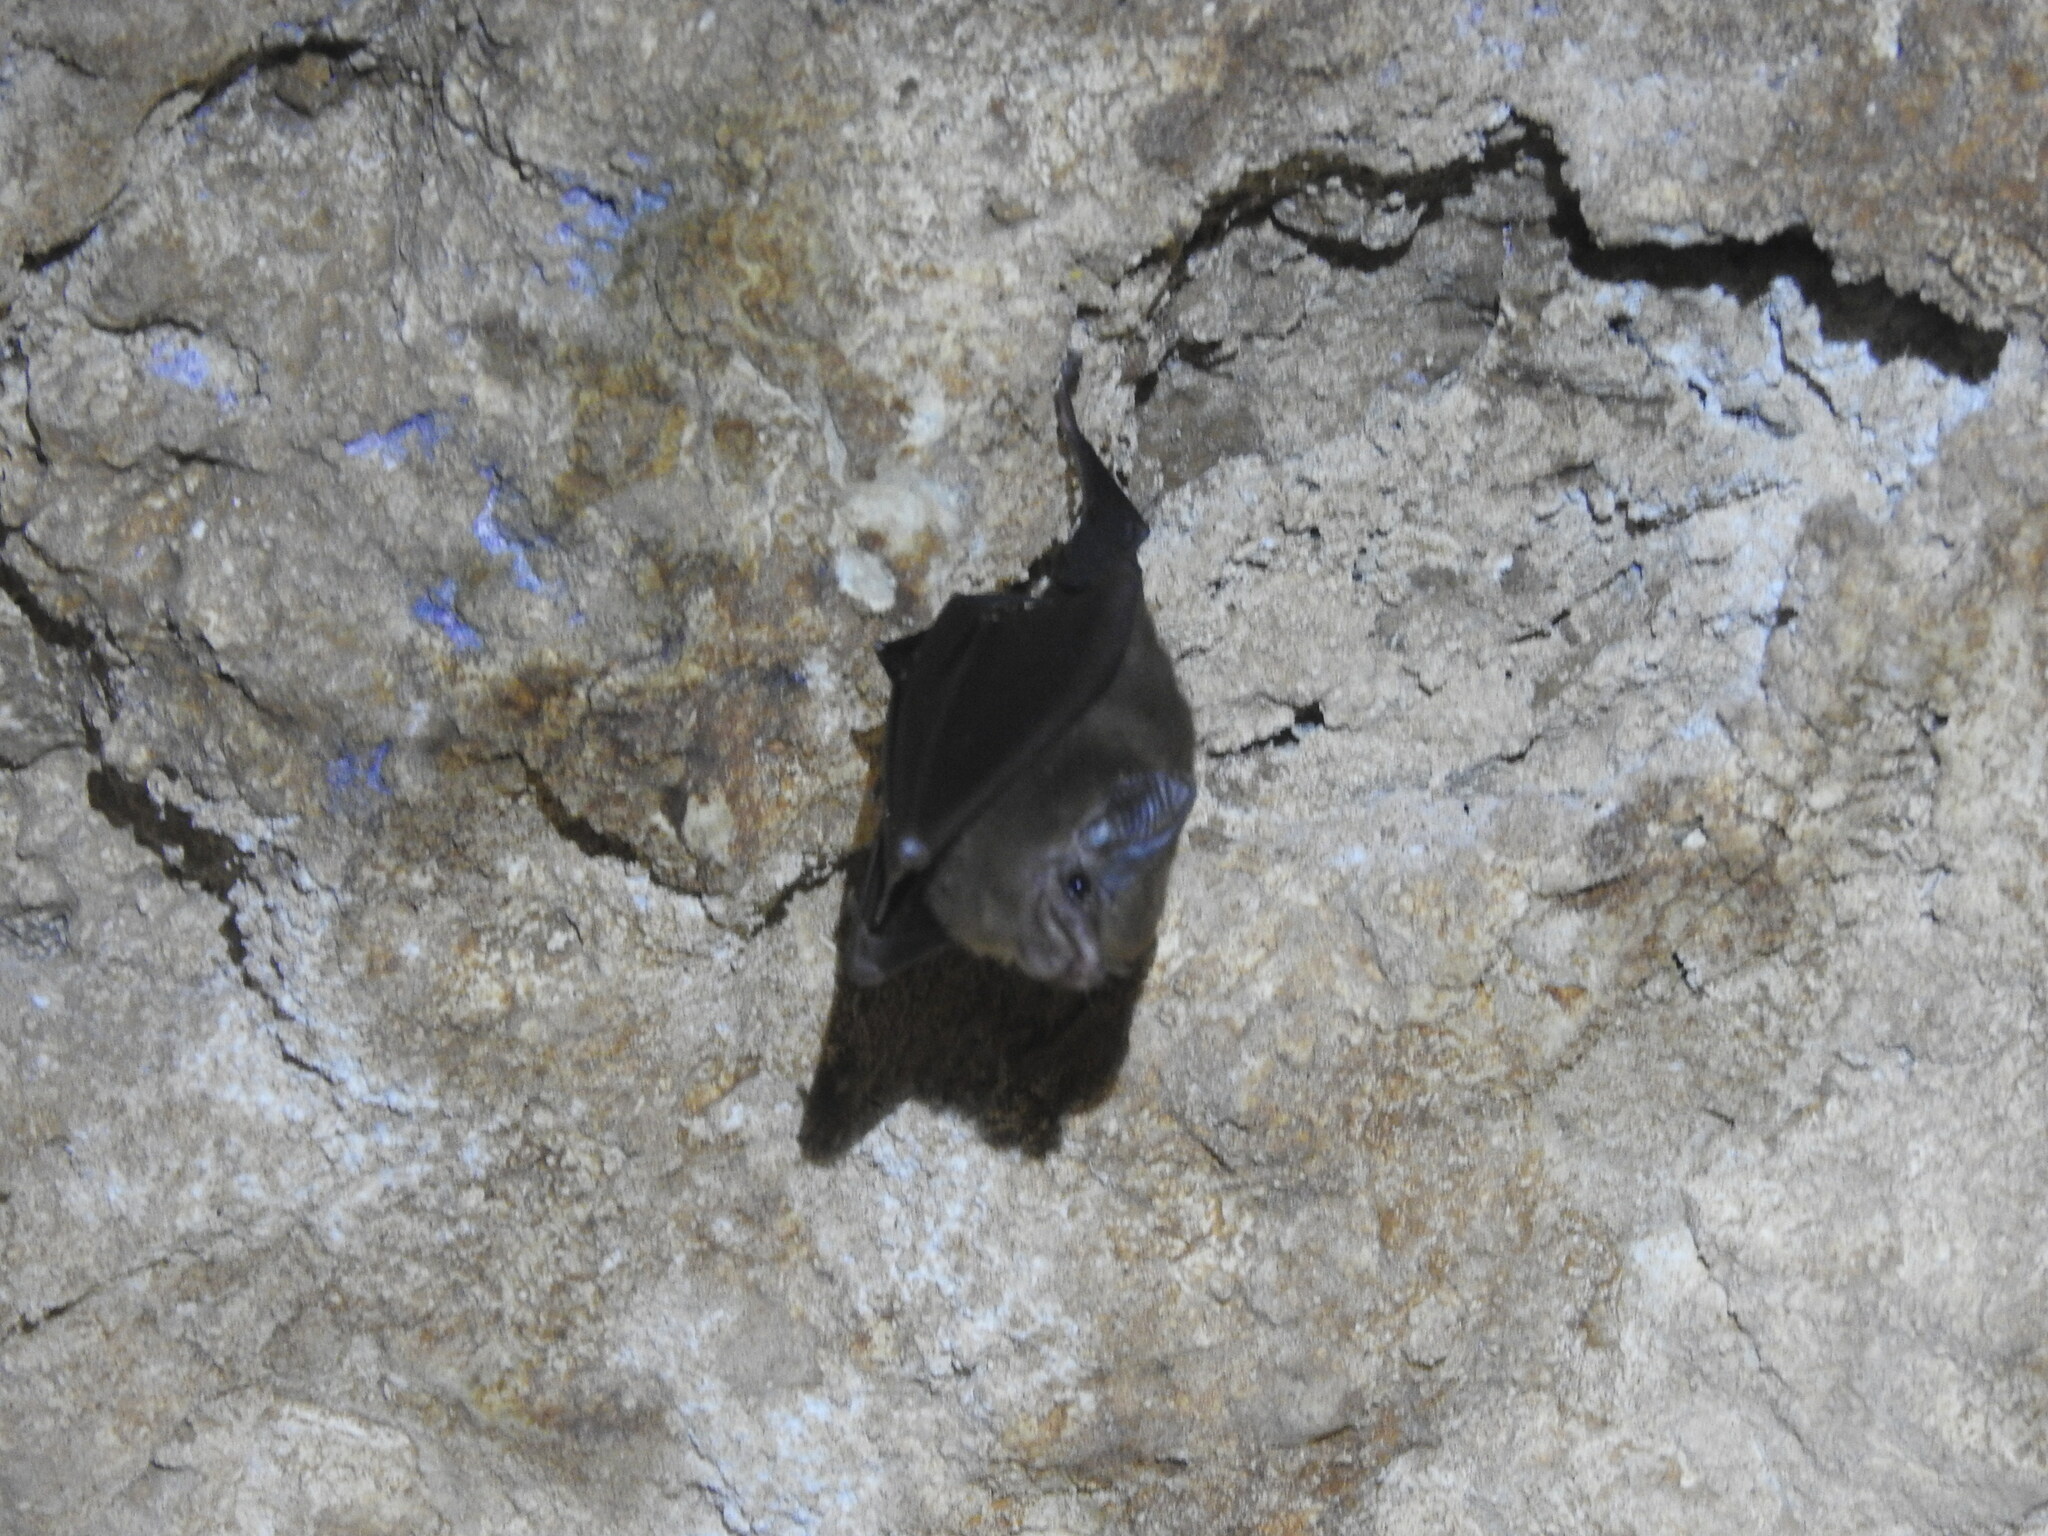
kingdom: Animalia
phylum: Chordata
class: Mammalia
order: Chiroptera
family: Emballonuridae
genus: Peropteryx
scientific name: Peropteryx macrotis
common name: Lesser dog-like bat
